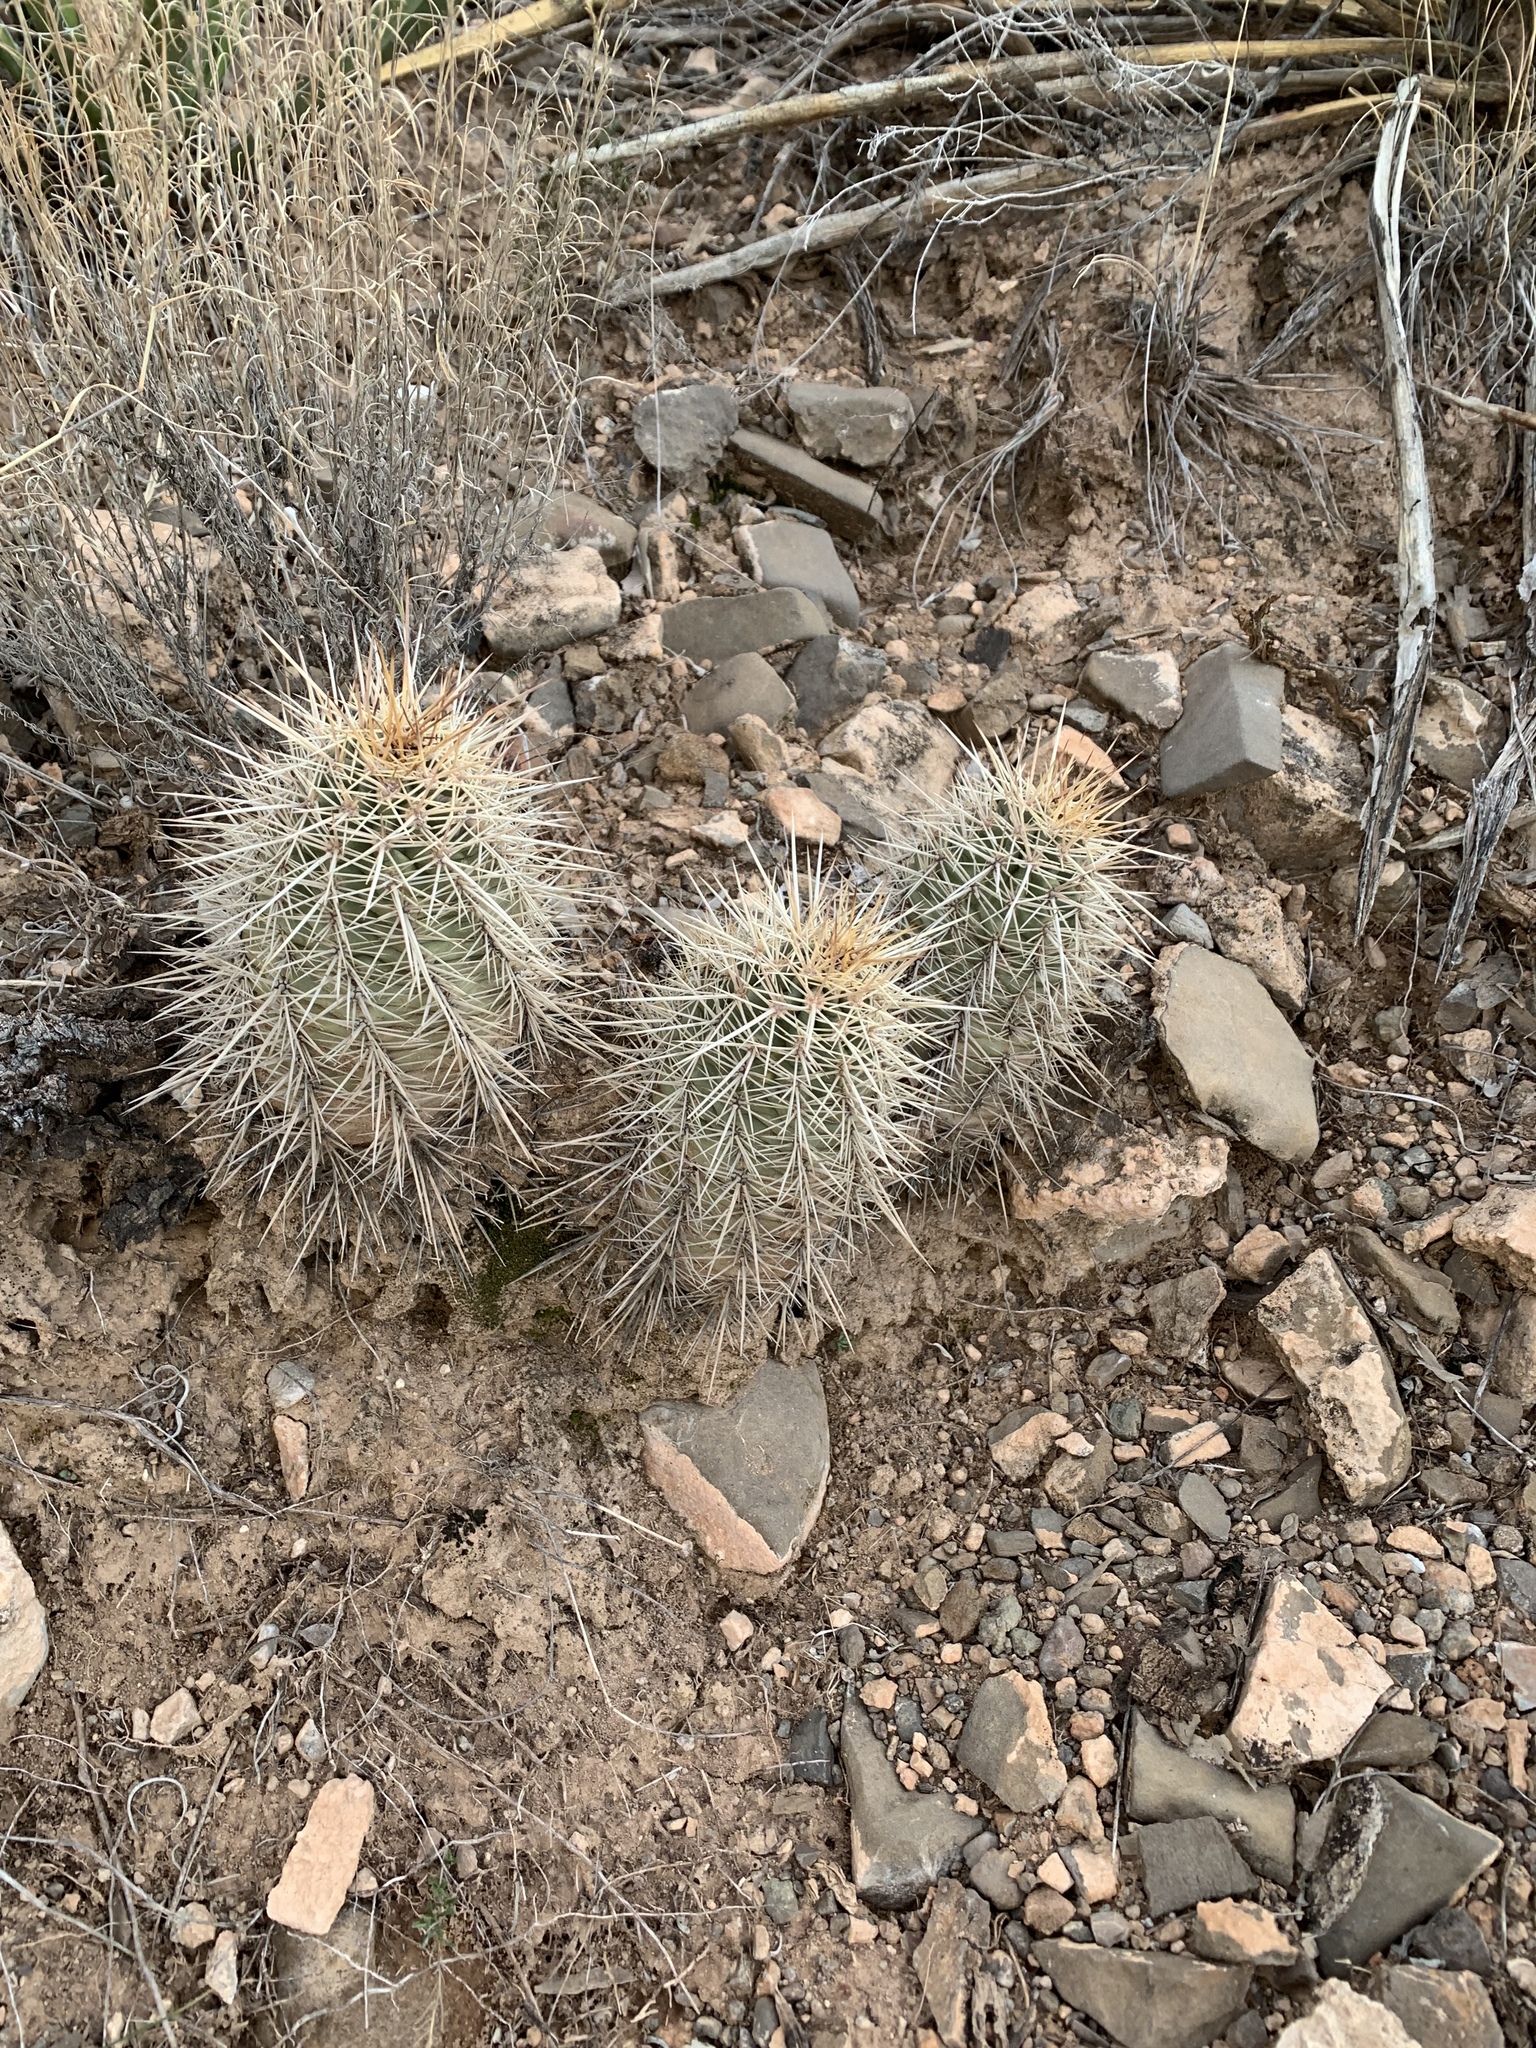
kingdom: Plantae
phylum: Tracheophyta
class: Magnoliopsida
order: Caryophyllales
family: Cactaceae
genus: Echinocereus
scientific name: Echinocereus coccineus
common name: Scarlet hedgehog cactus
